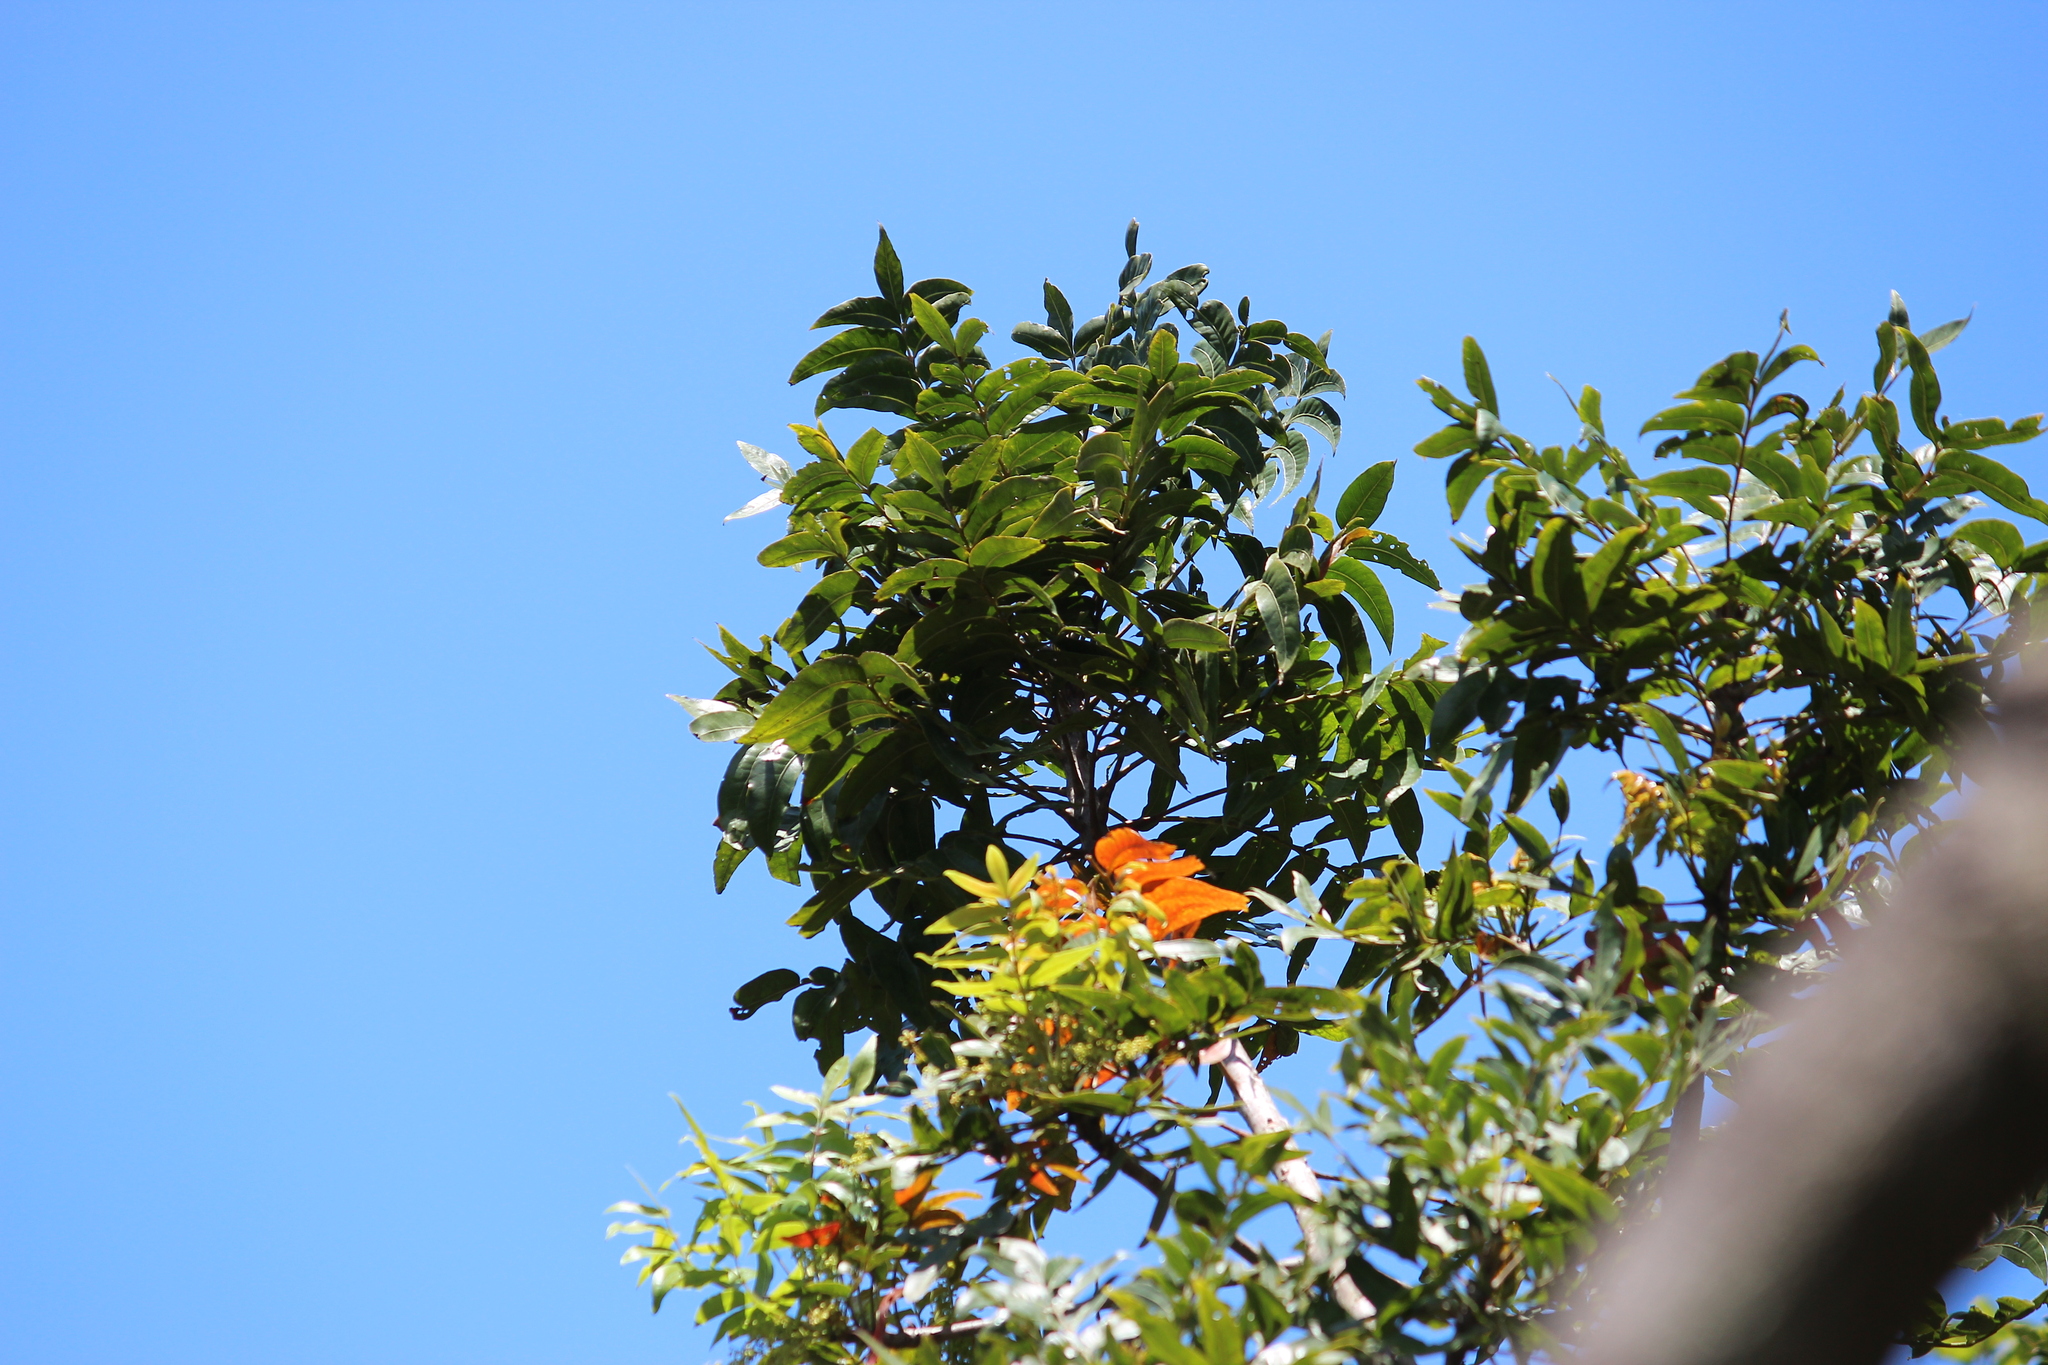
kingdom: Plantae
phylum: Tracheophyta
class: Magnoliopsida
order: Sapindales
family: Anacardiaceae
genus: Harpephyllum
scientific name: Harpephyllum caffrum
